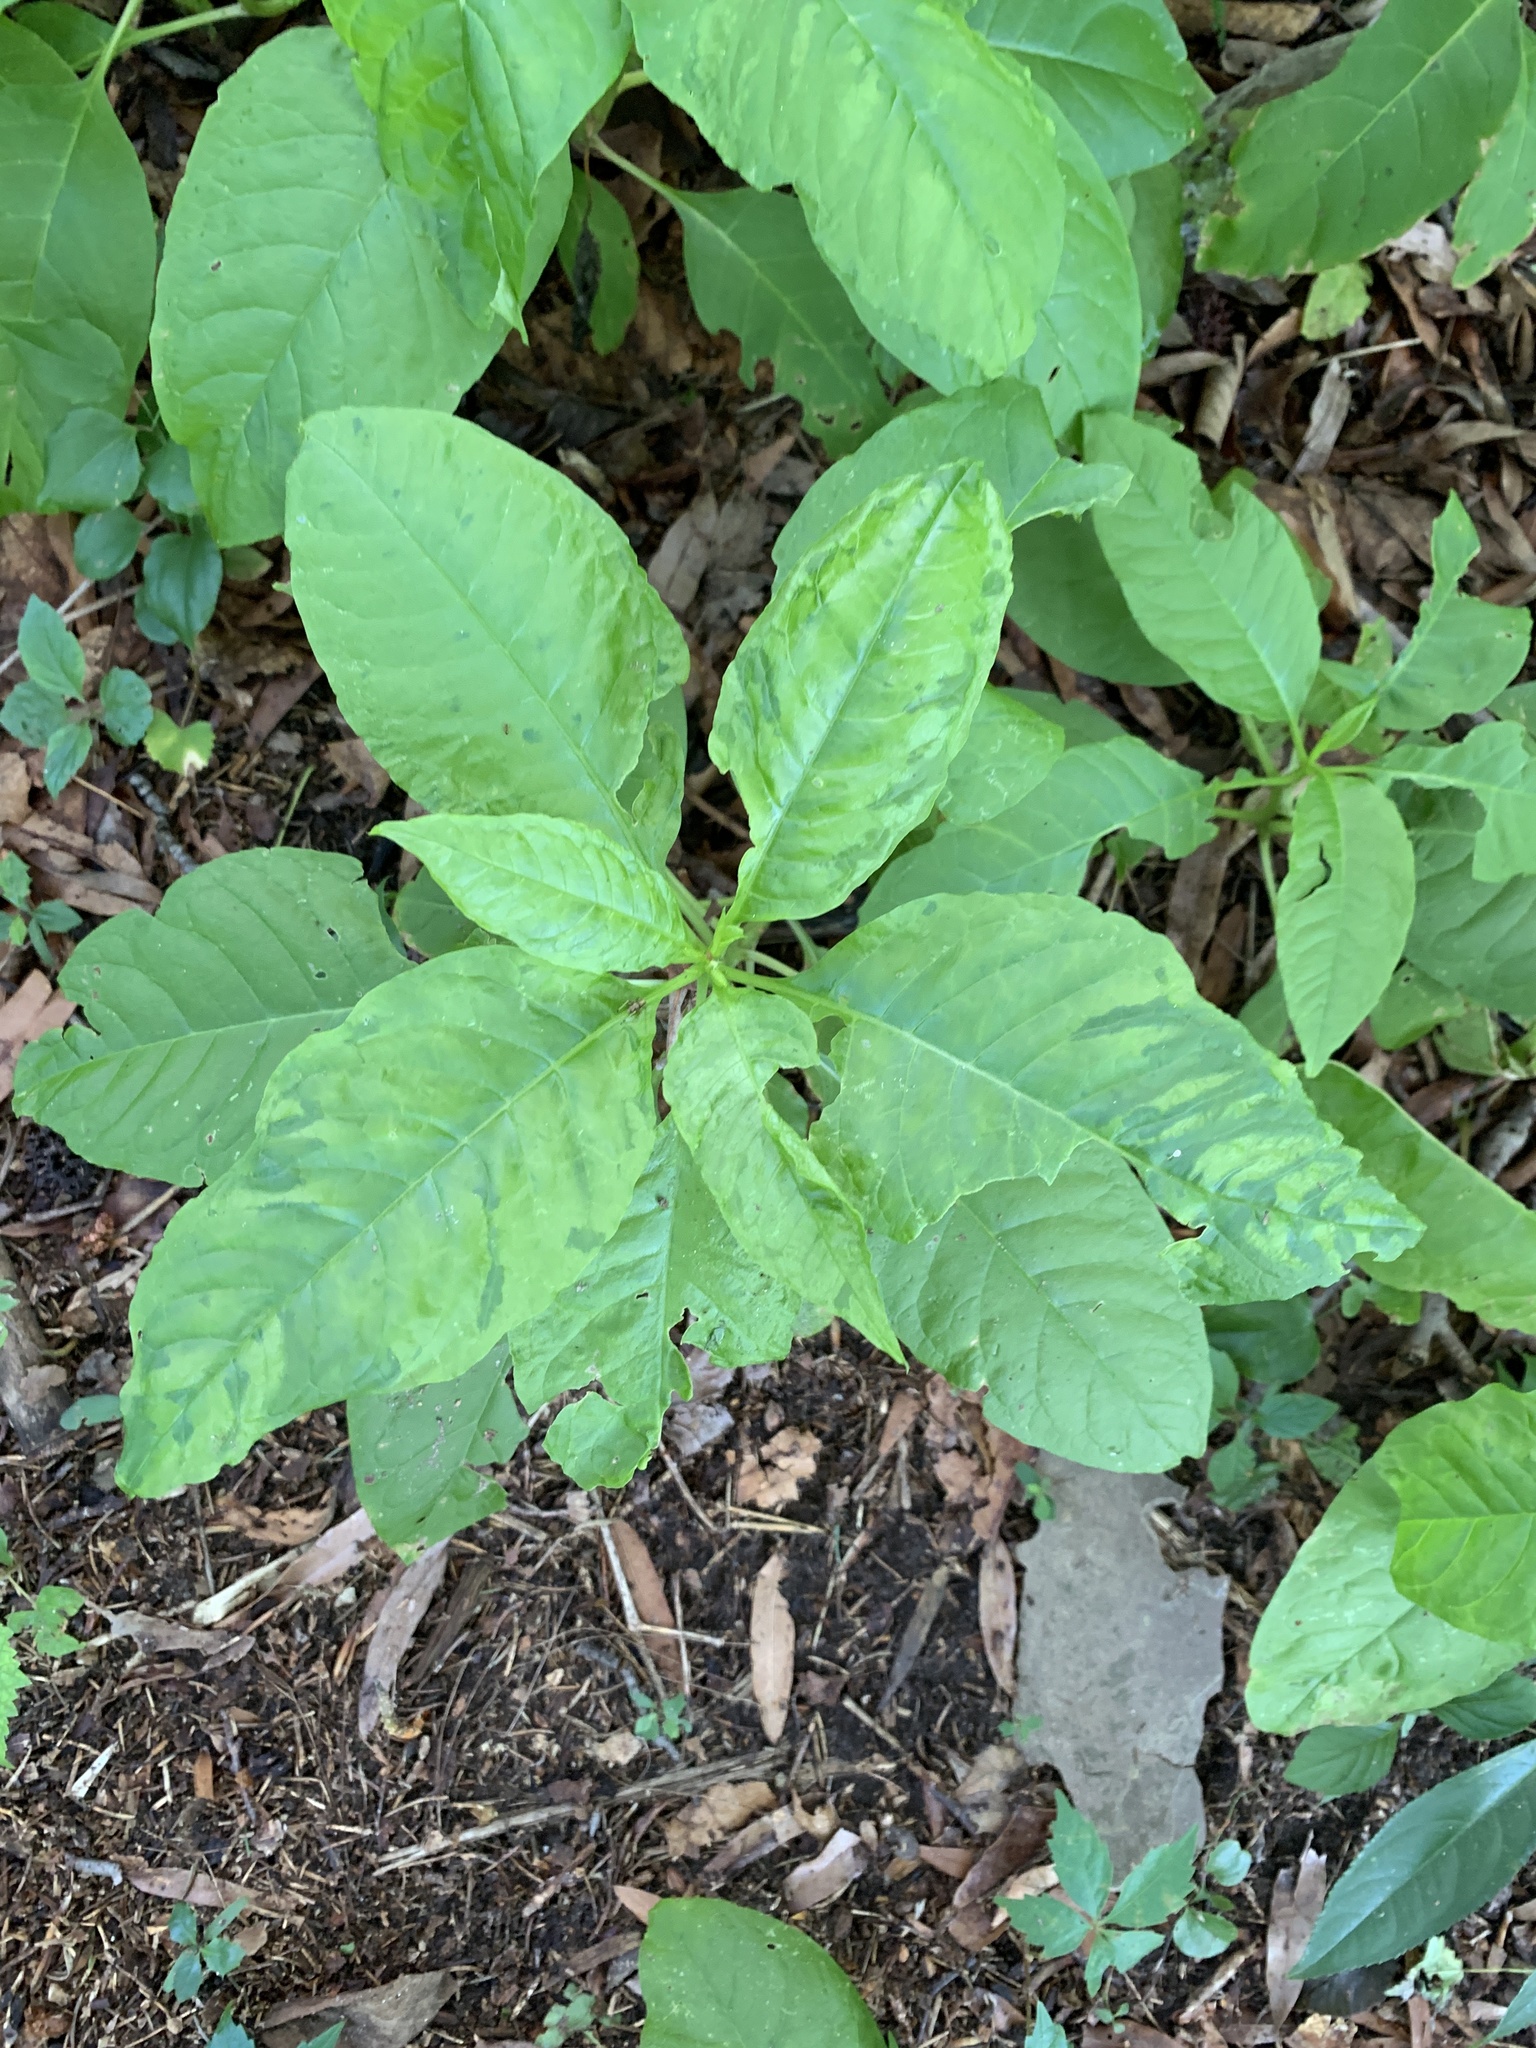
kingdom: Plantae
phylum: Tracheophyta
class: Magnoliopsida
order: Caryophyllales
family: Phytolaccaceae
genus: Phytolacca
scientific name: Phytolacca americana
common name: American pokeweed
